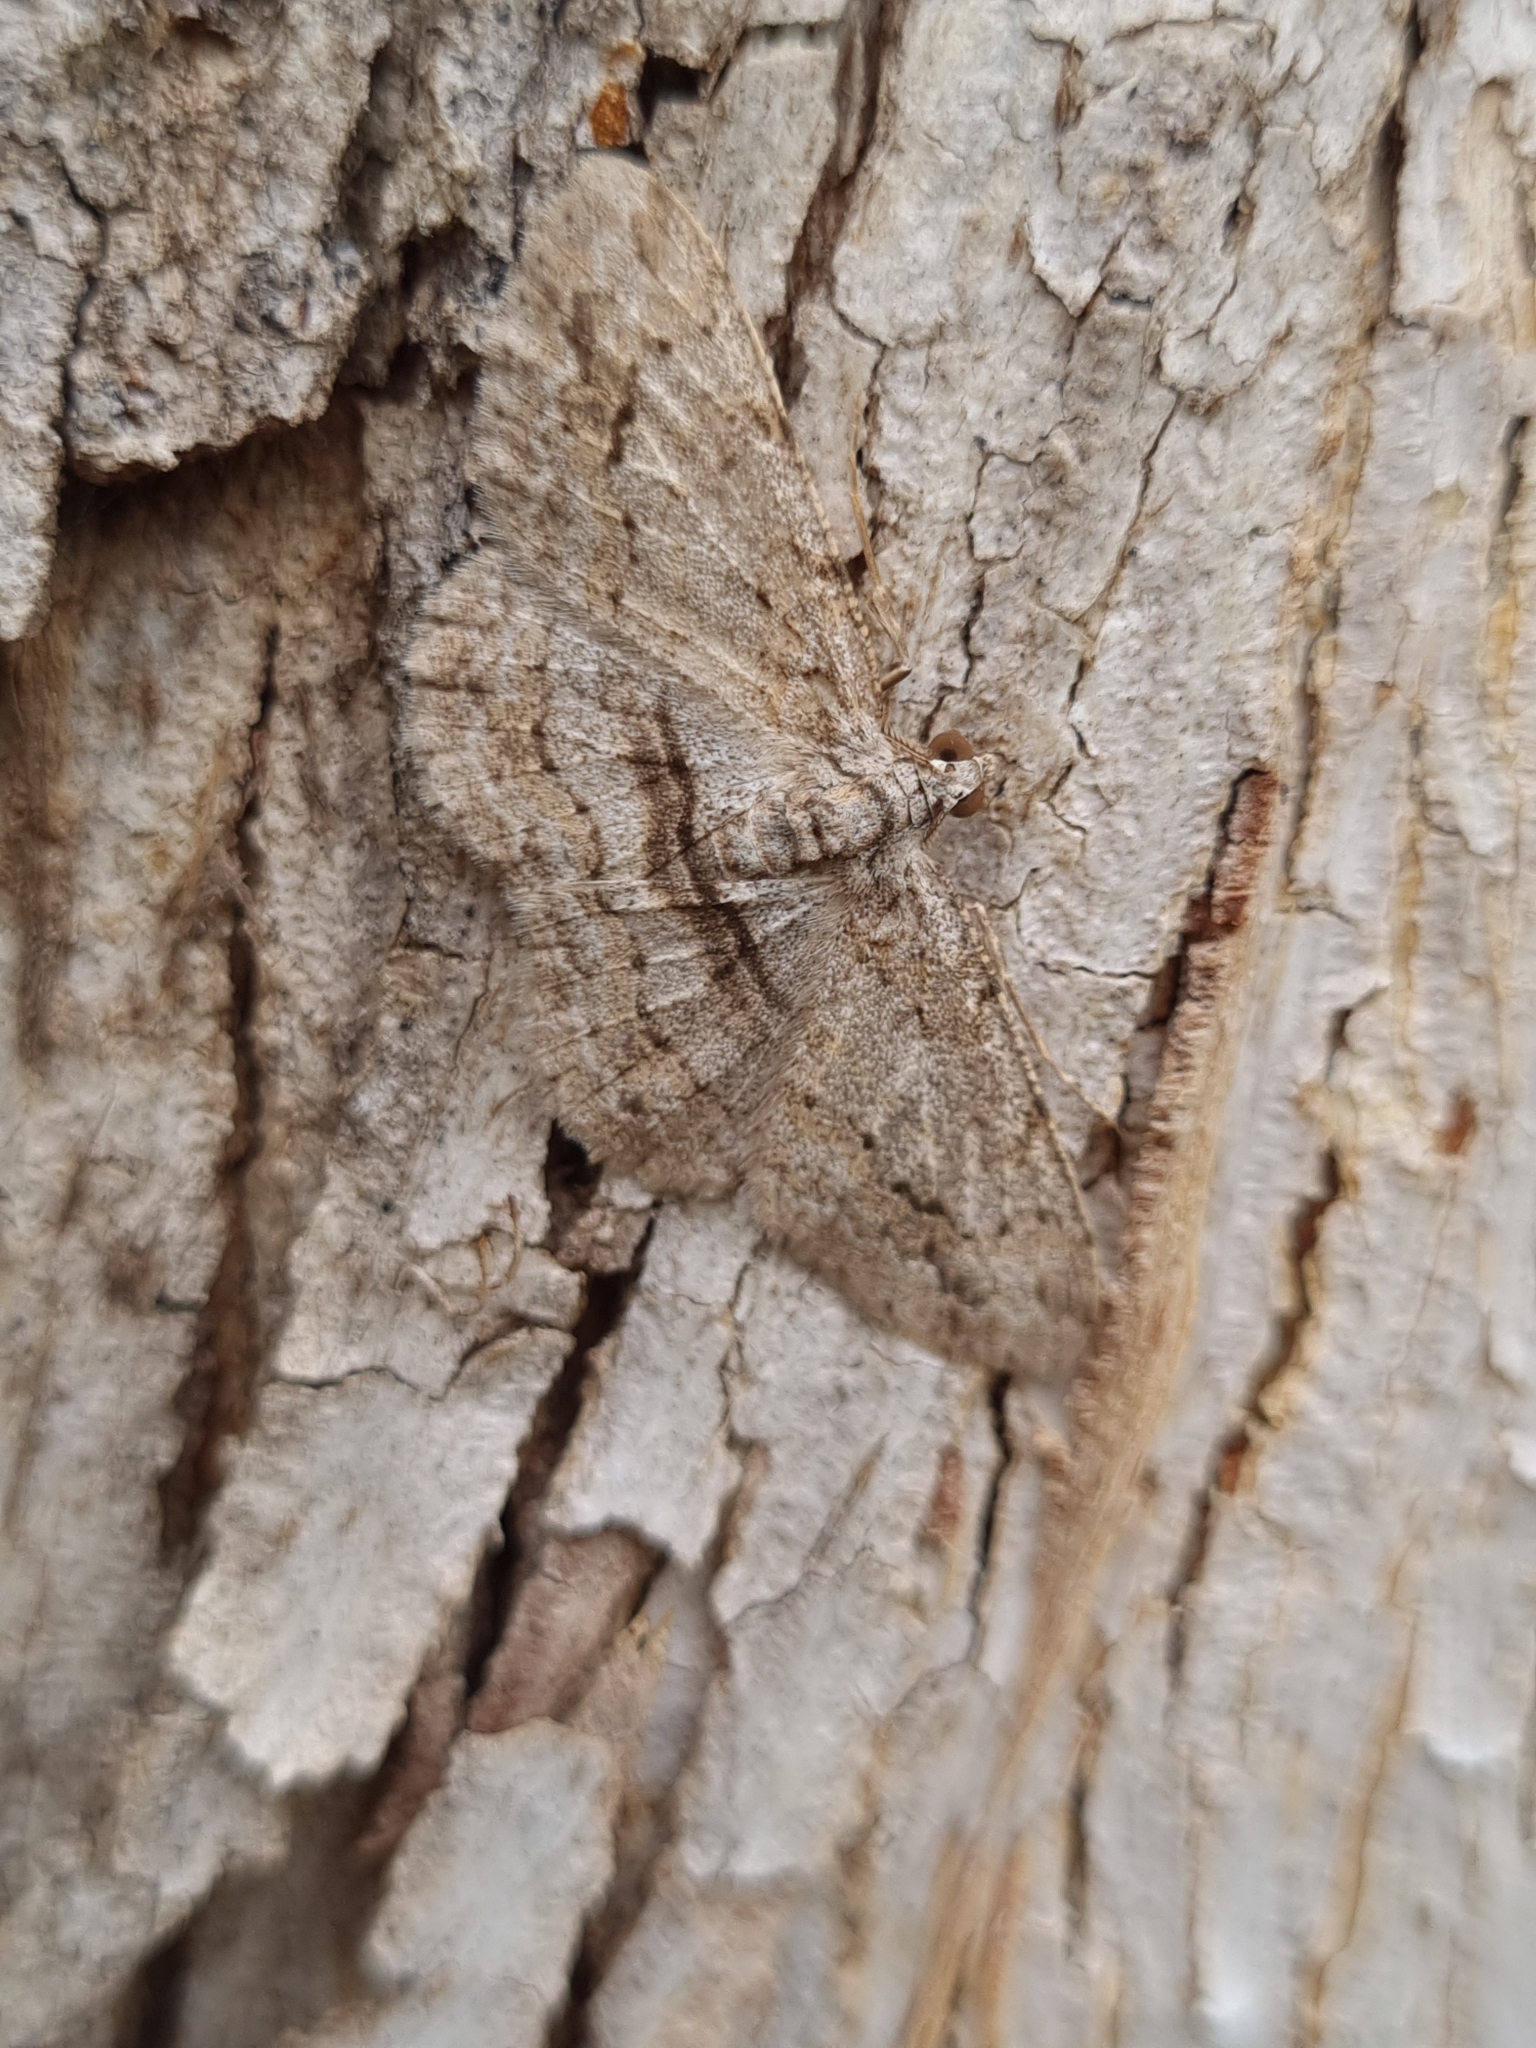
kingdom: Animalia
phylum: Arthropoda
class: Insecta
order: Lepidoptera
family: Geometridae
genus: Didymoctenia
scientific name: Didymoctenia exsuperata
